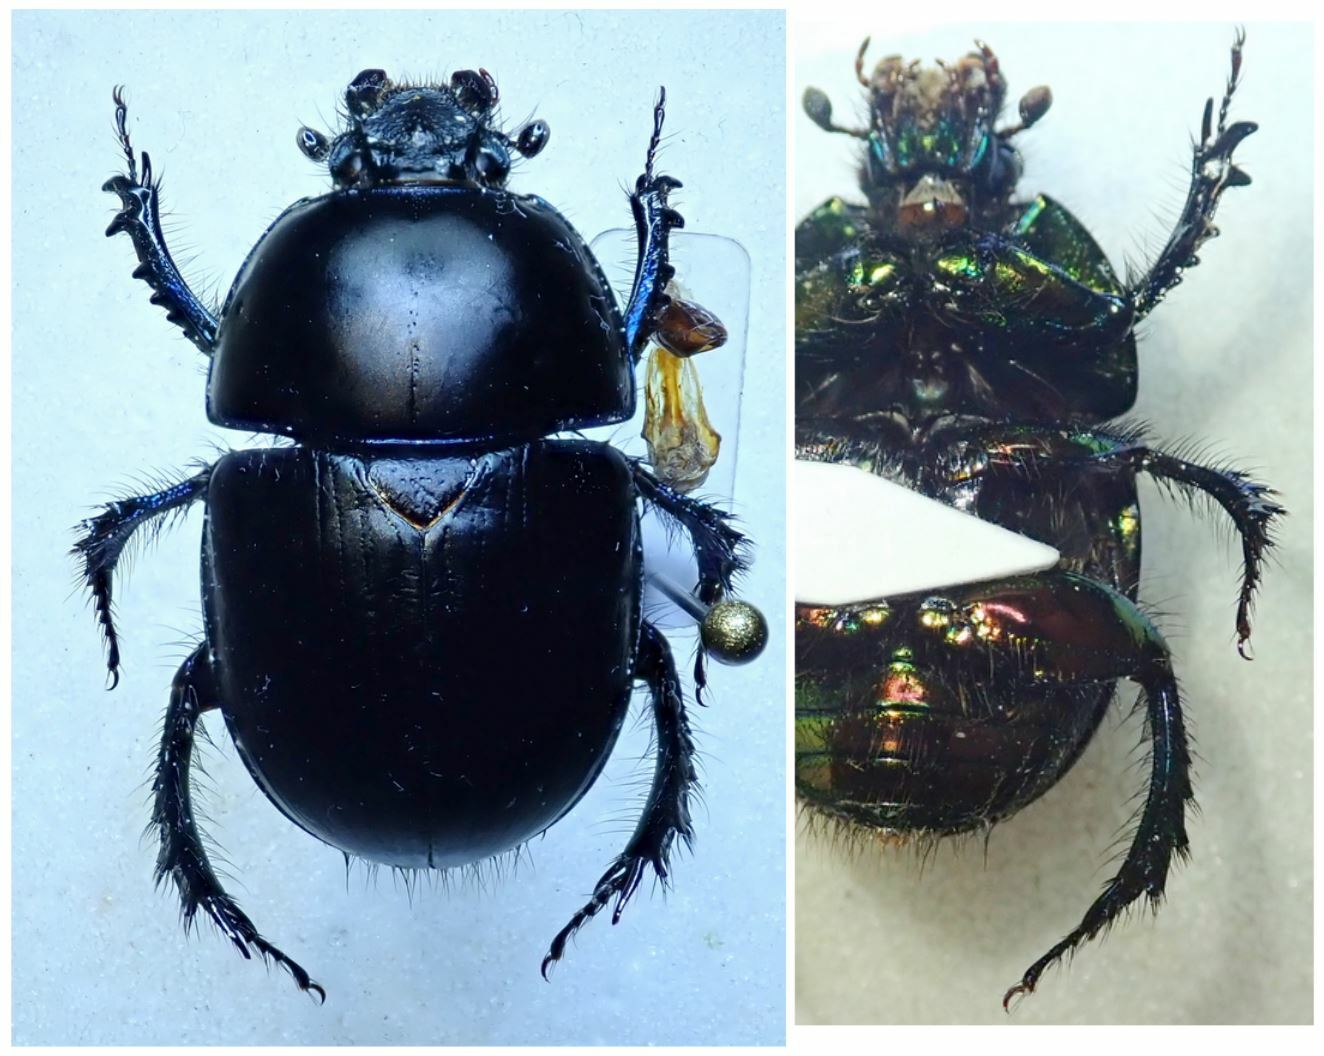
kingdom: Animalia
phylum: Arthropoda
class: Insecta
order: Coleoptera
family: Geotrupidae
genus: Sericotrupes
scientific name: Sericotrupes niger
